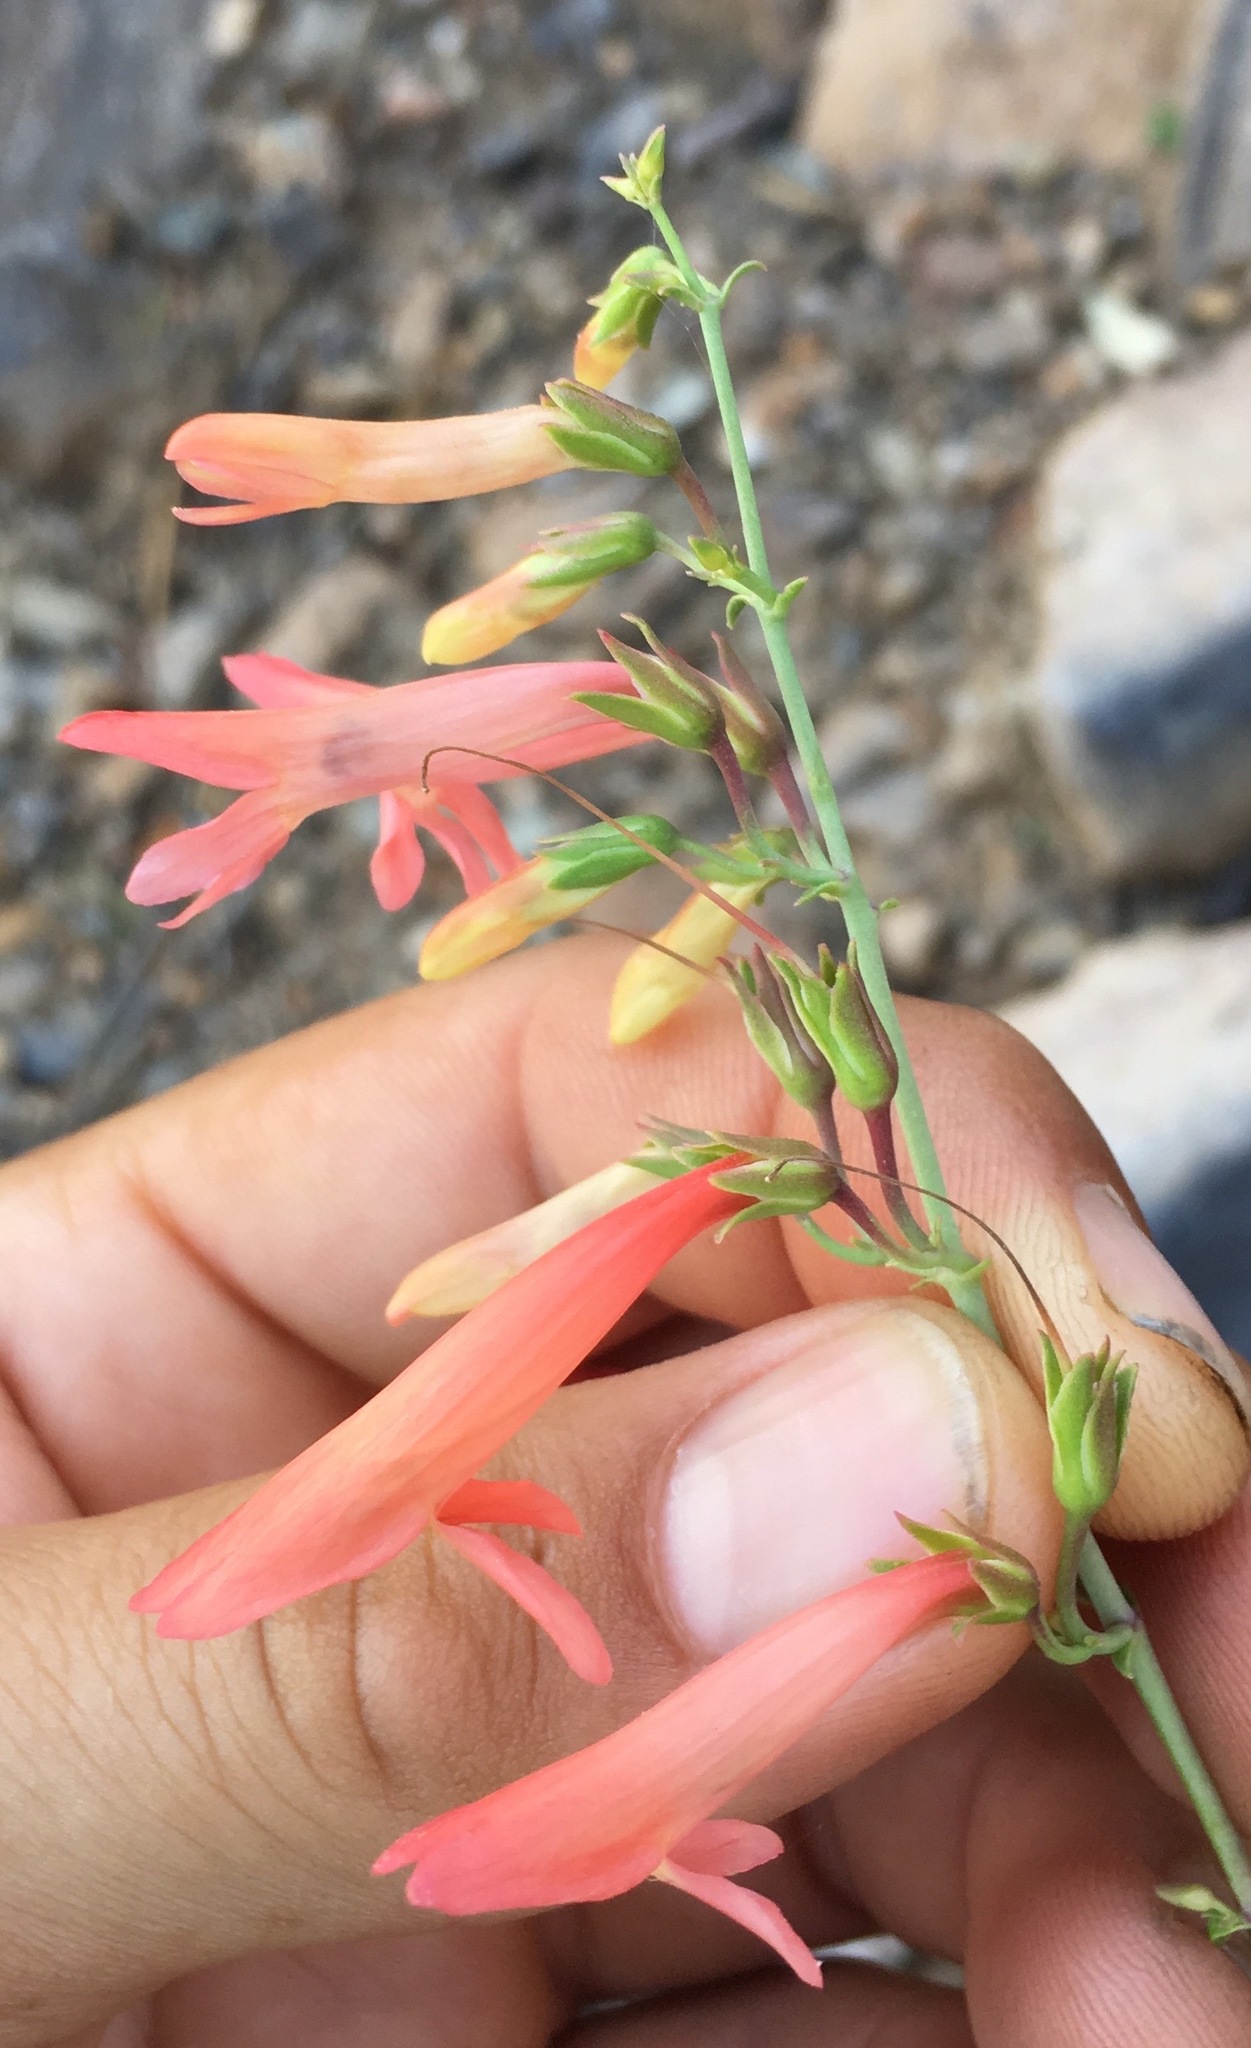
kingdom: Plantae
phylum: Tracheophyta
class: Magnoliopsida
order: Lamiales
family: Plantaginaceae
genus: Penstemon
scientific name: Penstemon barbatus
